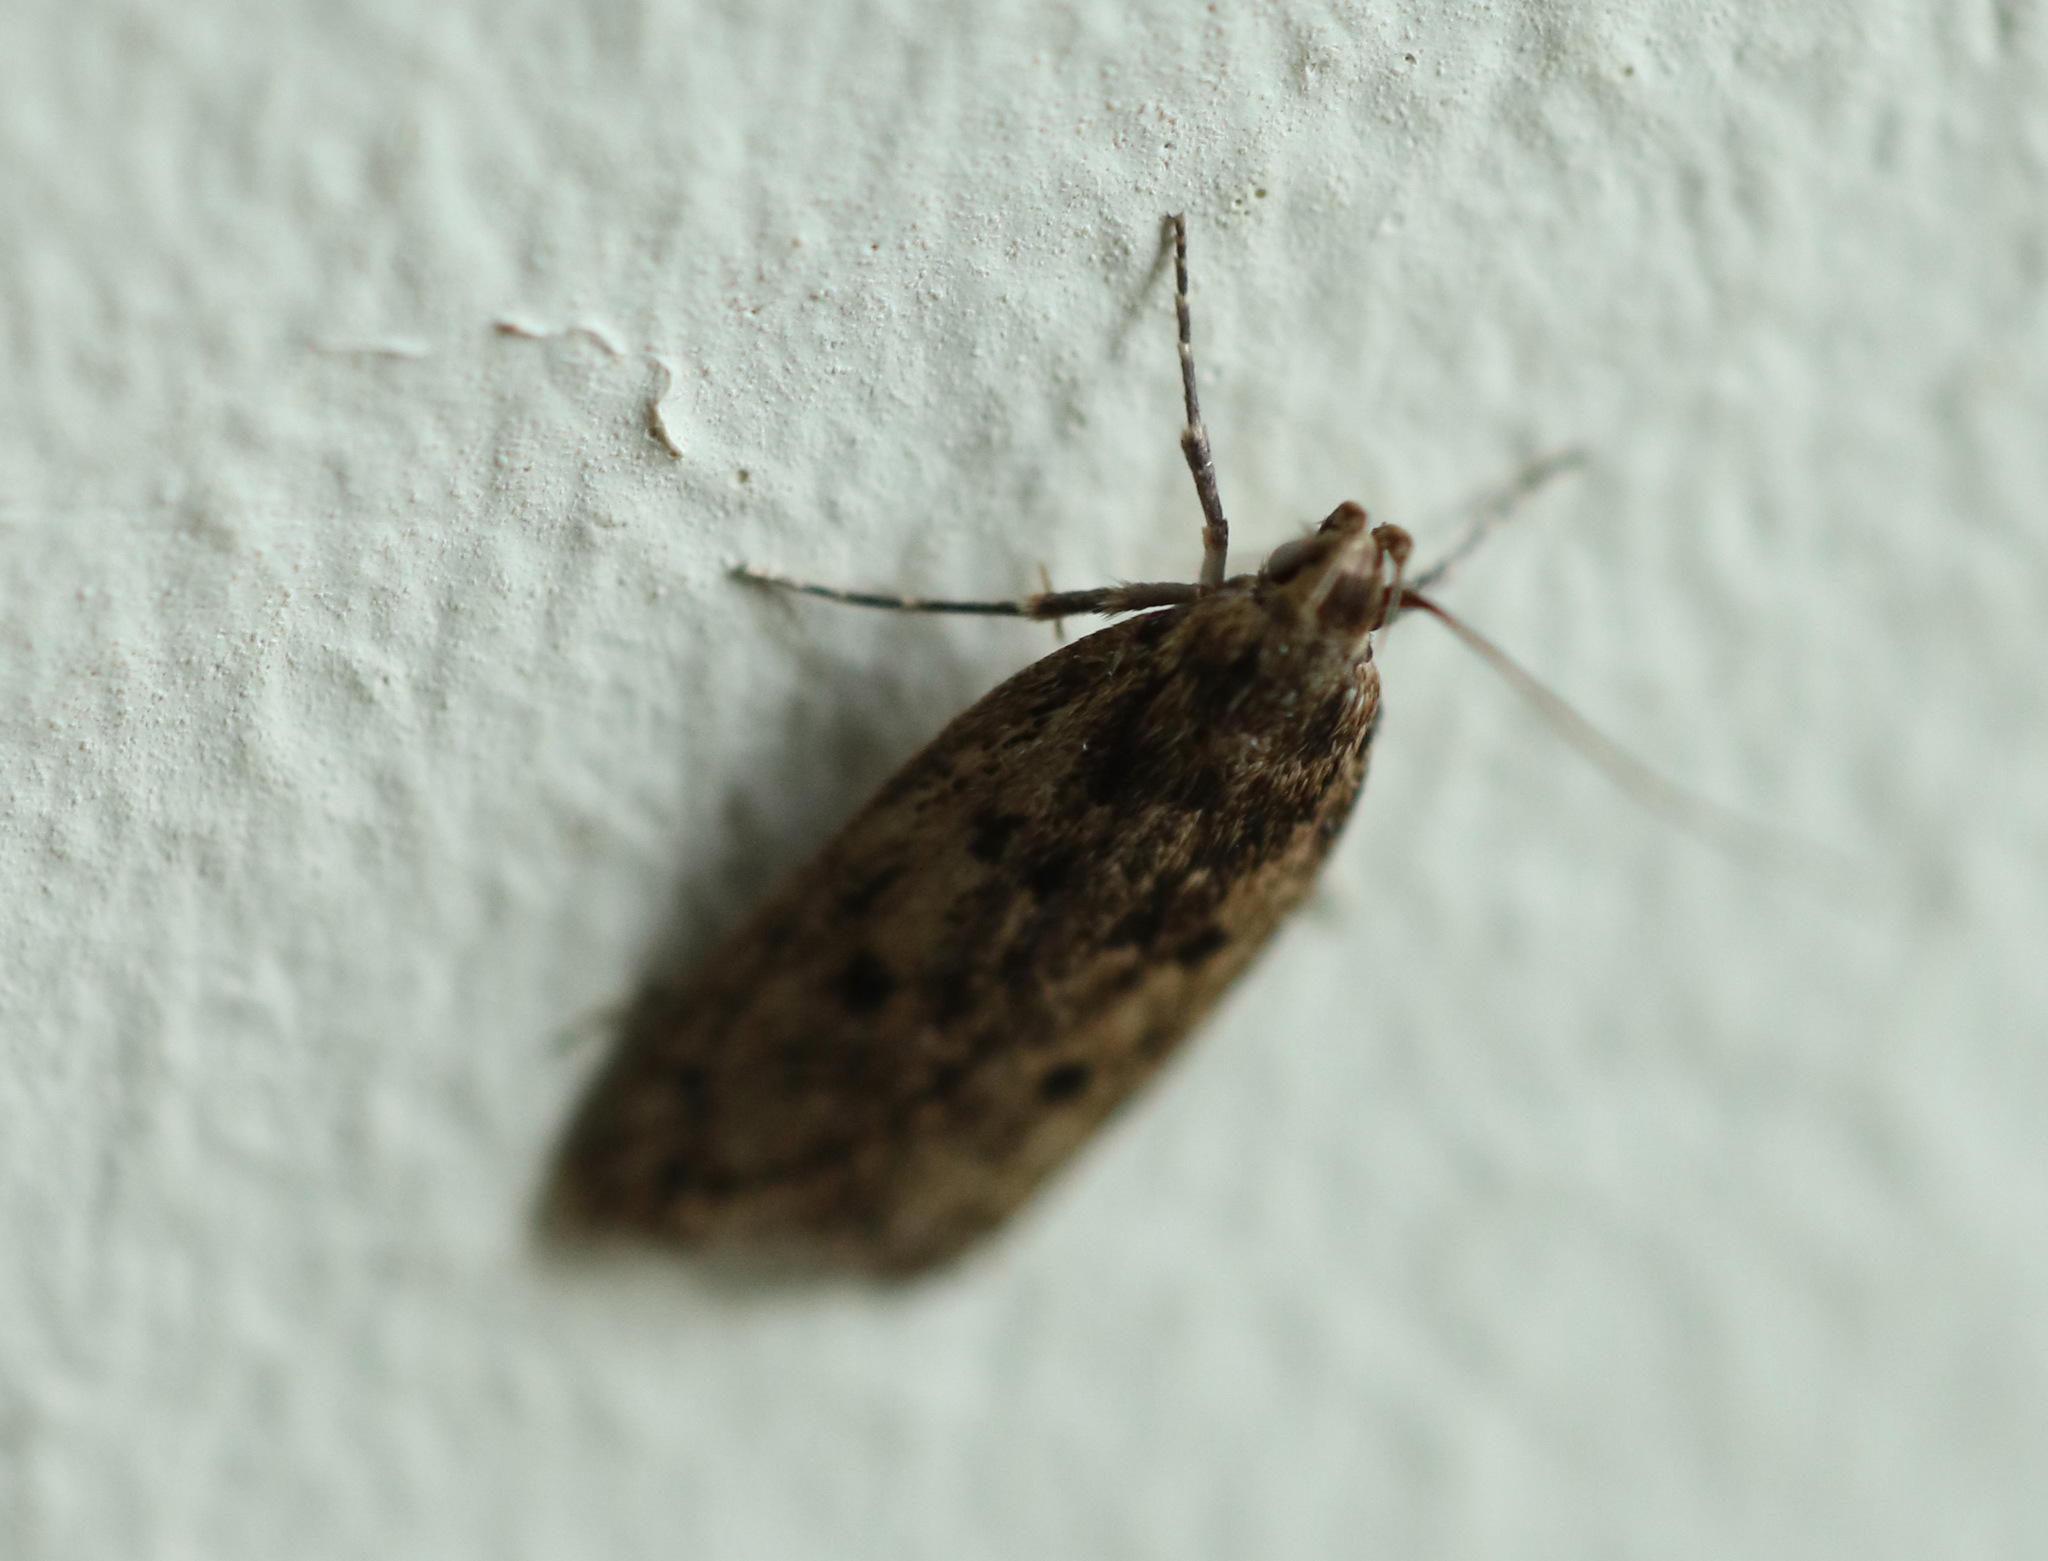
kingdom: Animalia
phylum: Arthropoda
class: Insecta
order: Lepidoptera
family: Oecophoridae
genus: Hofmannophila
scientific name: Hofmannophila pseudospretella
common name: Brown house moth
